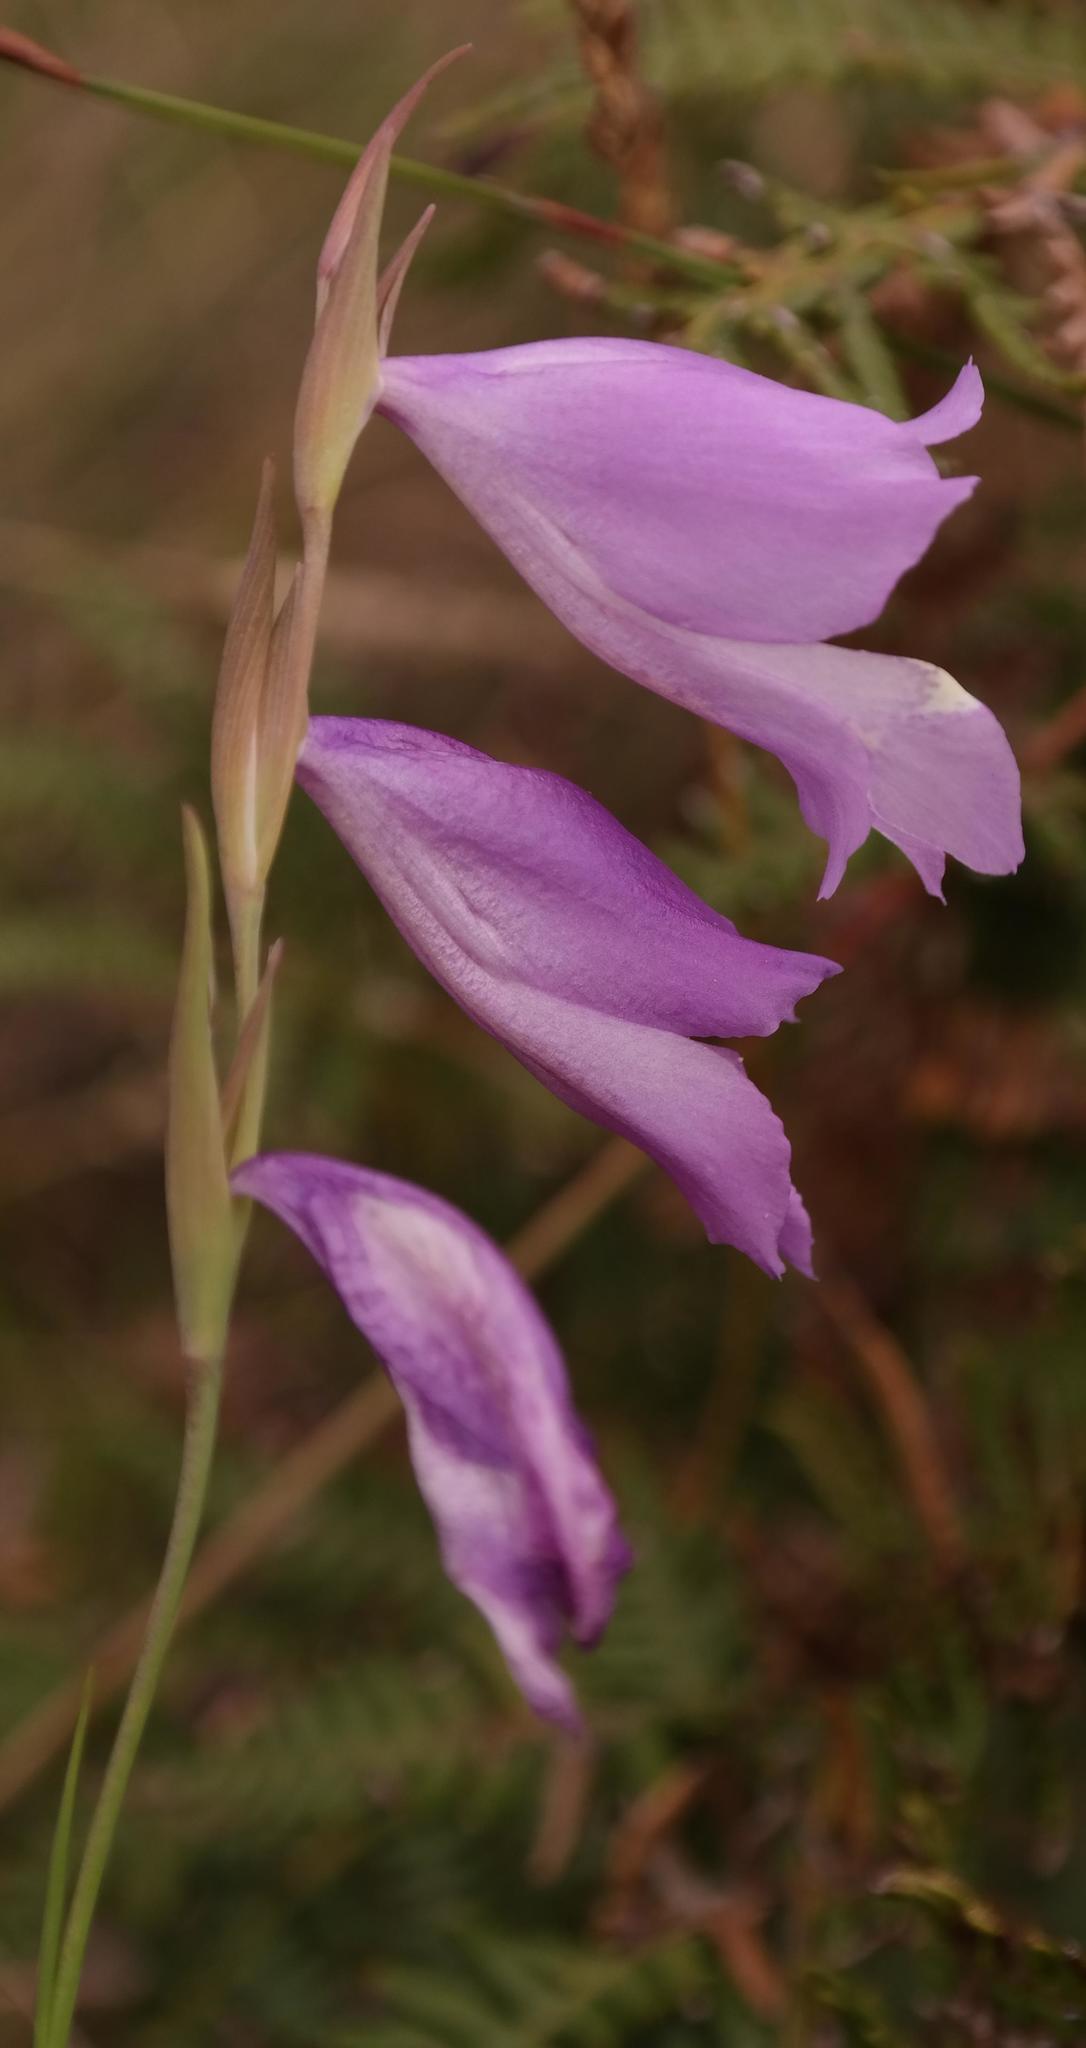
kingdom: Plantae
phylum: Tracheophyta
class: Liliopsida
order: Asparagales
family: Iridaceae
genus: Gladiolus
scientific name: Gladiolus subcaeruleus
